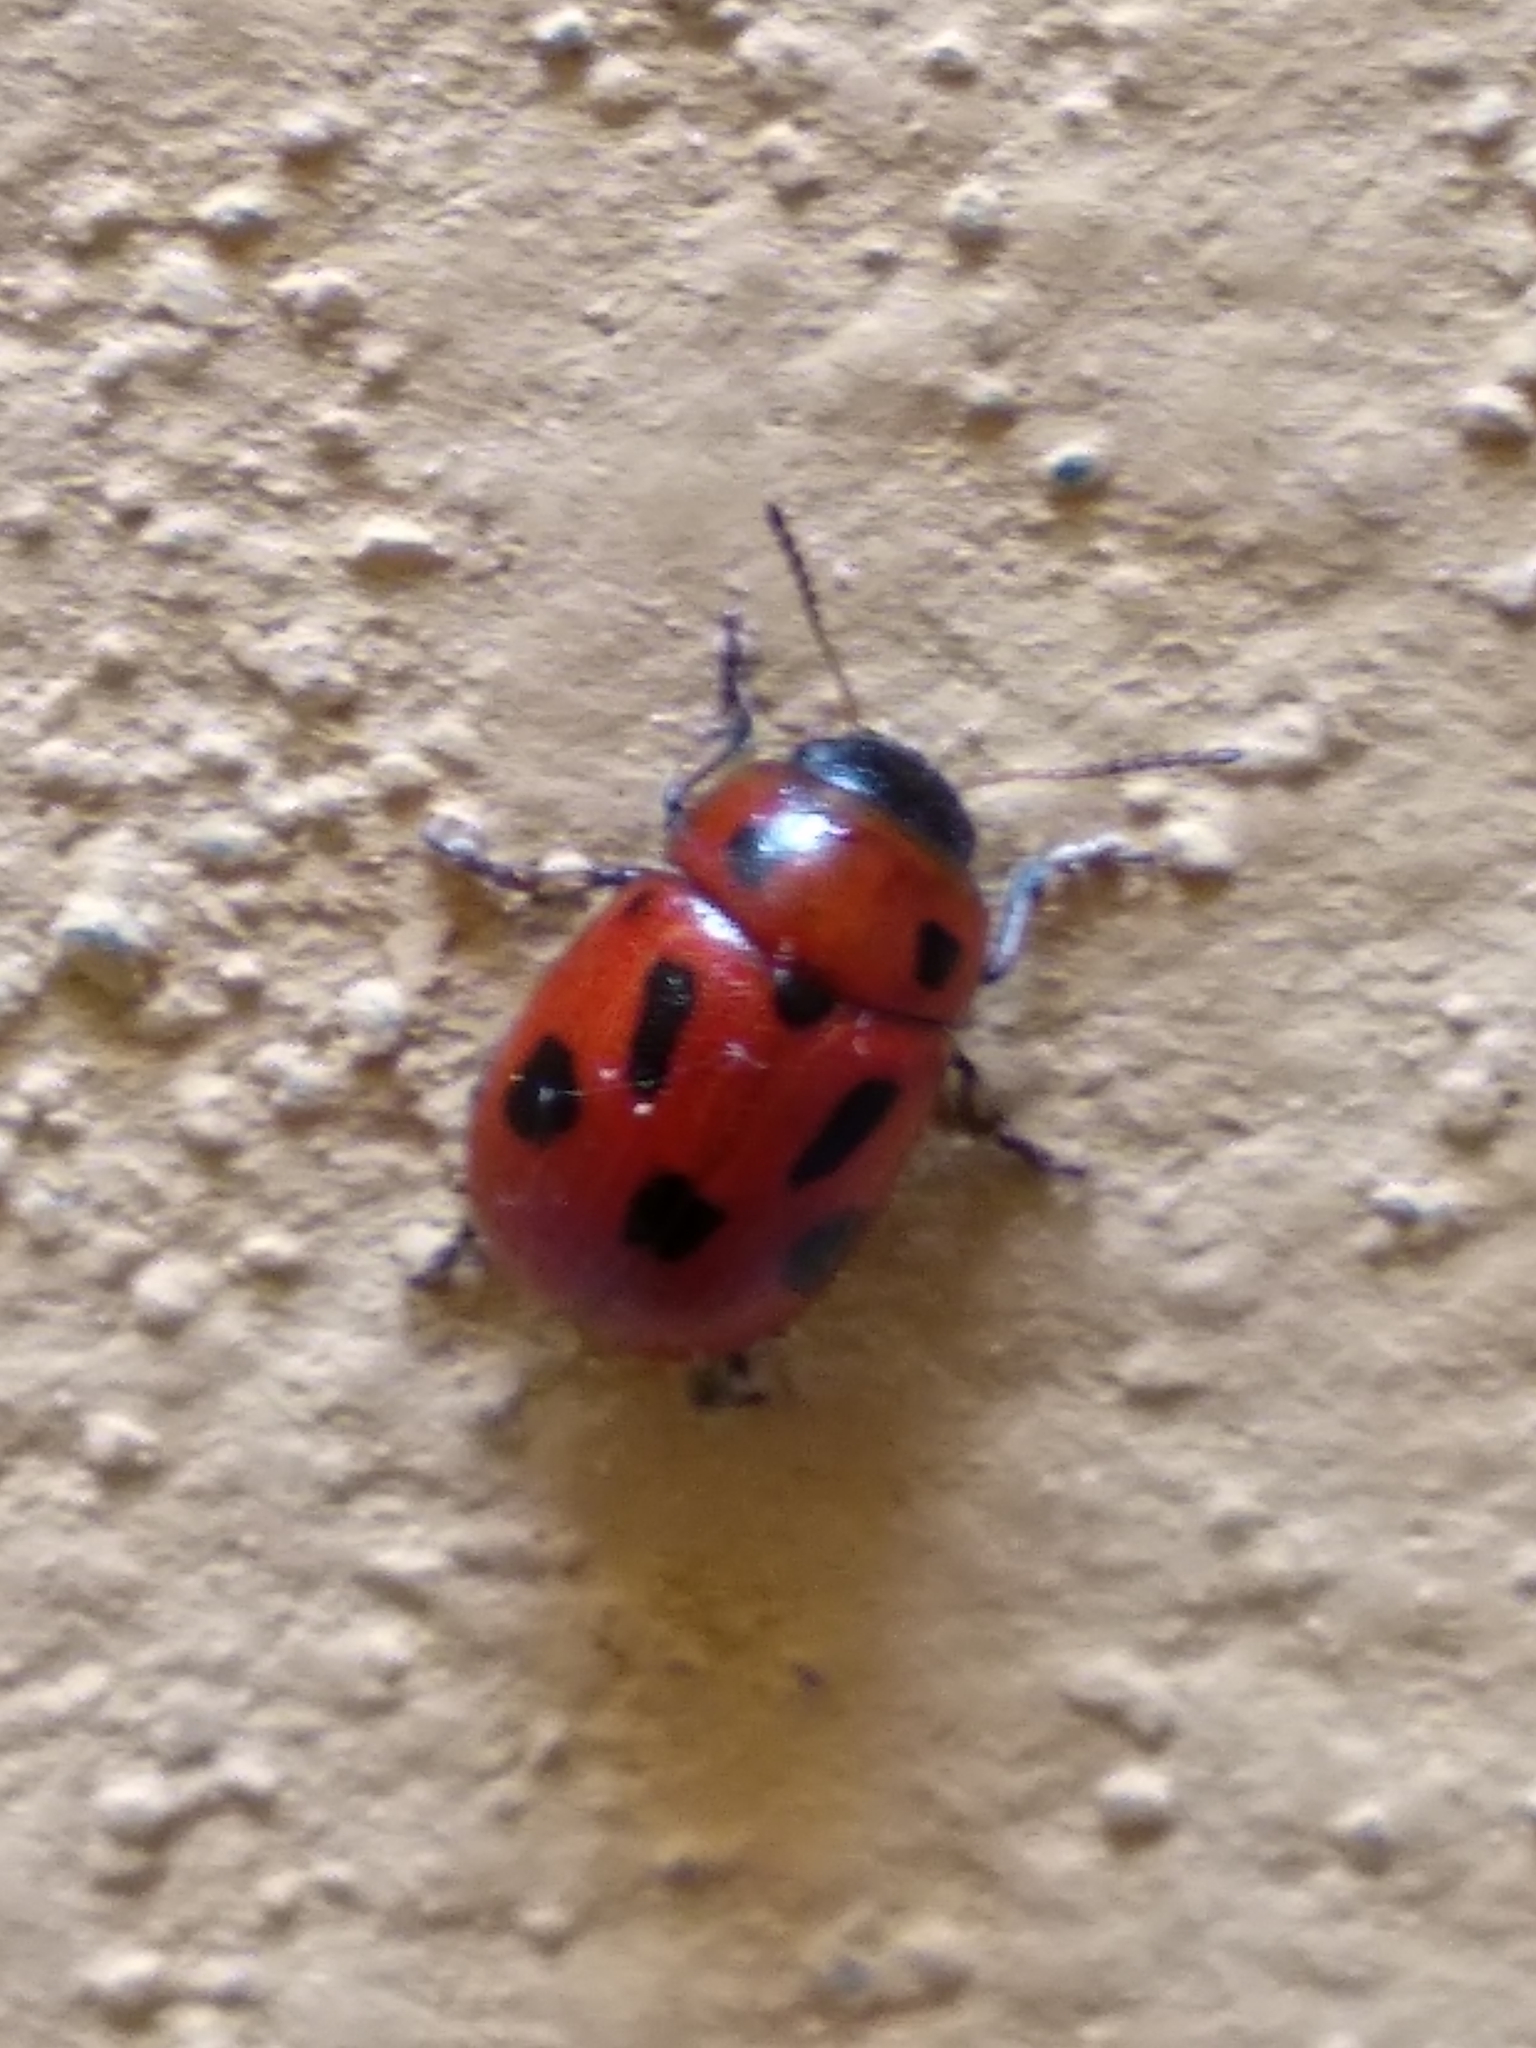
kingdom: Animalia
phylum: Arthropoda
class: Insecta
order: Coleoptera
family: Chrysomelidae
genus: Gonioctena
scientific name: Gonioctena fornicata
